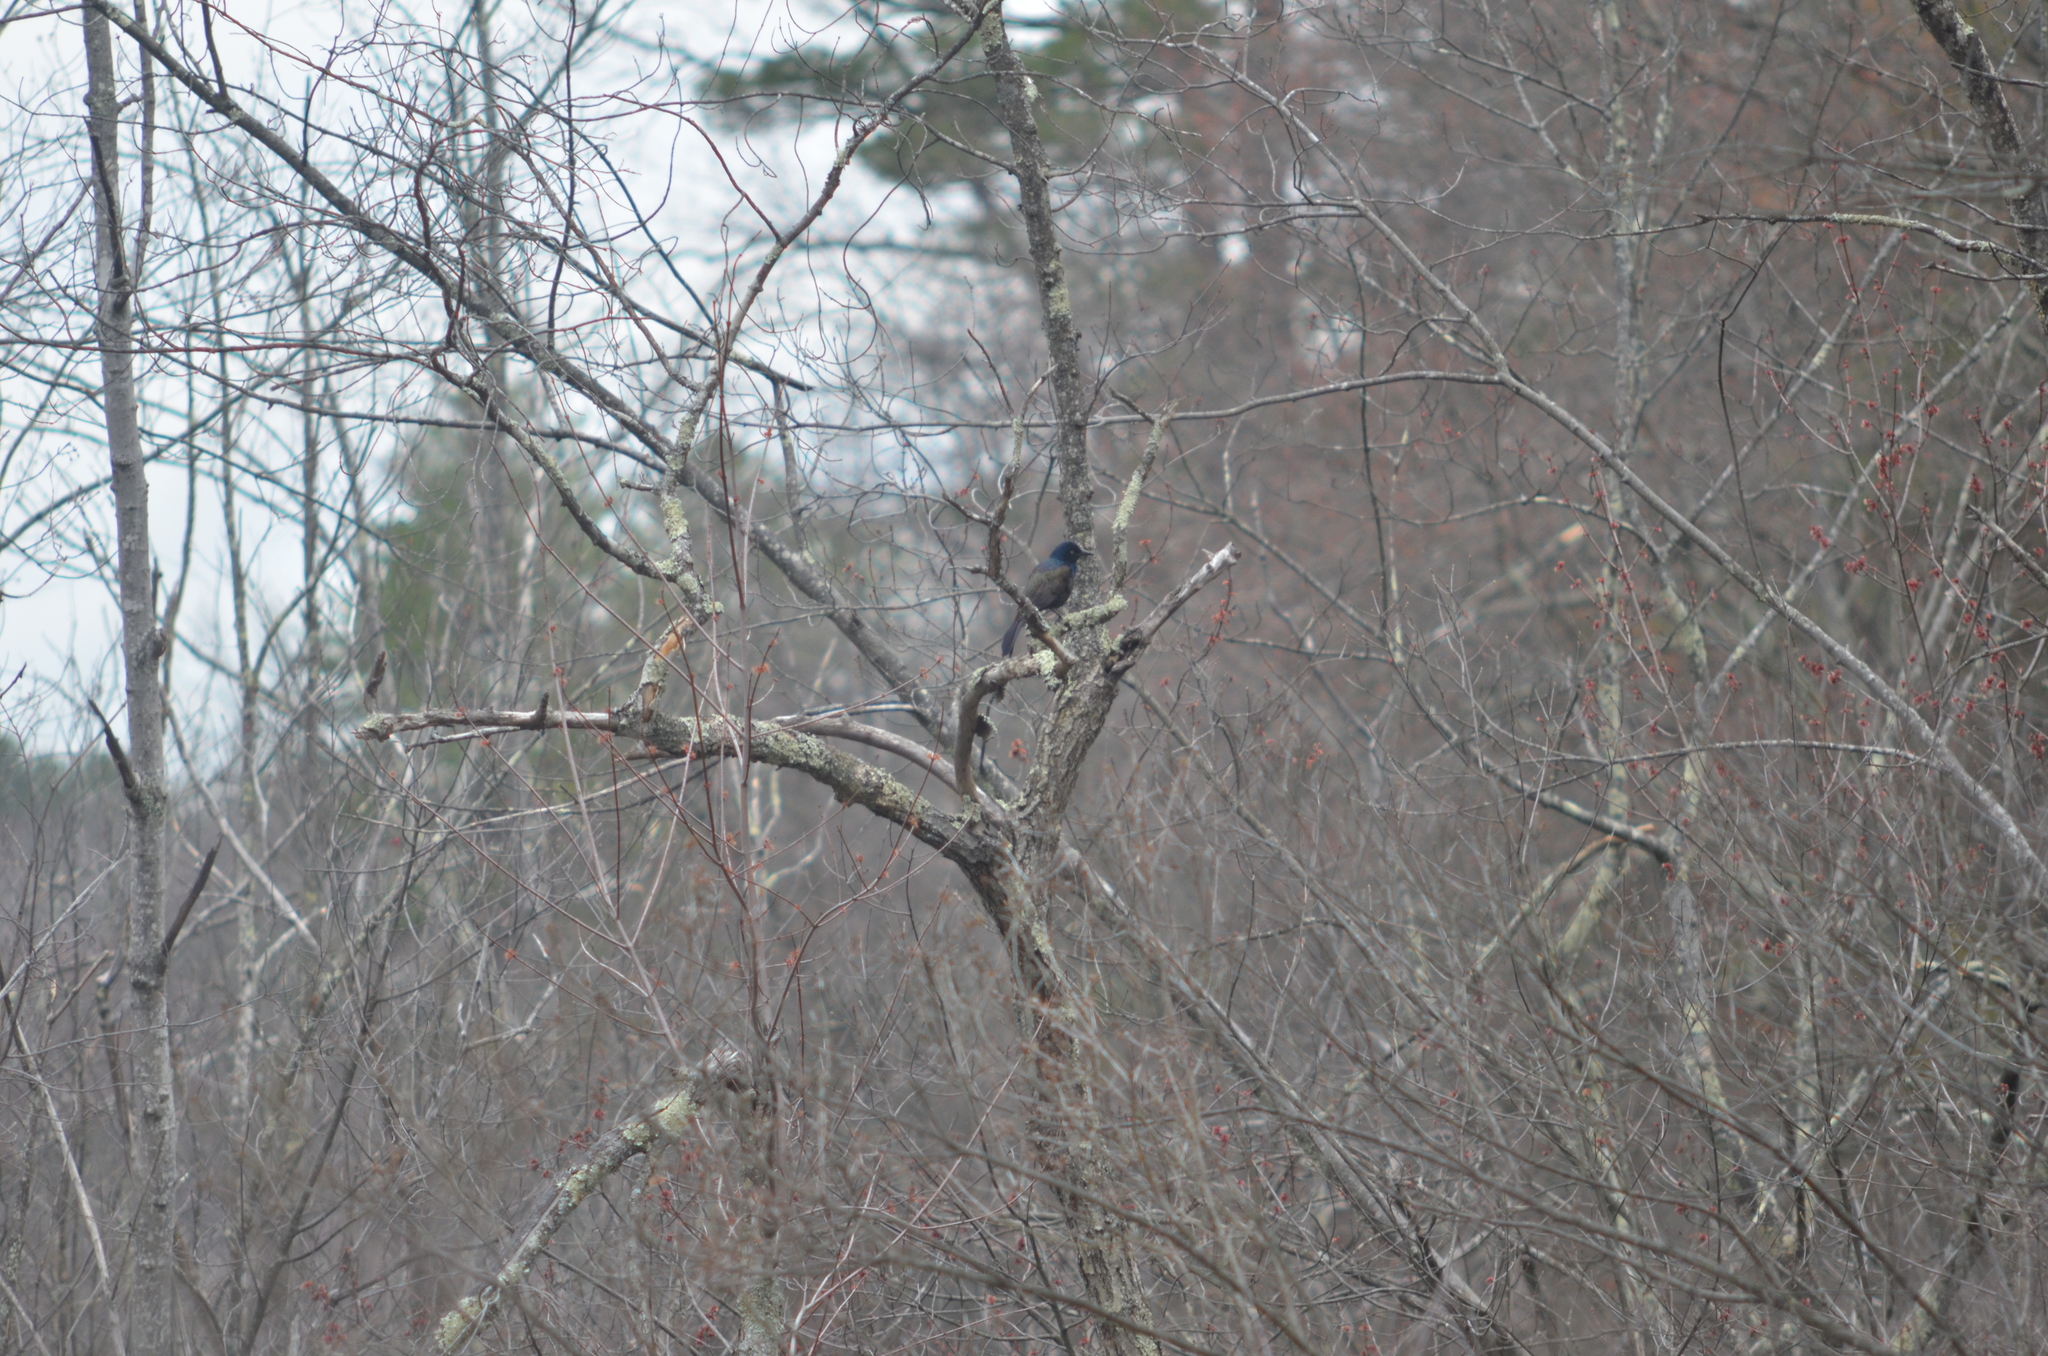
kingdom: Animalia
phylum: Chordata
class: Aves
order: Passeriformes
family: Icteridae
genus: Quiscalus
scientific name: Quiscalus quiscula
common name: Common grackle
